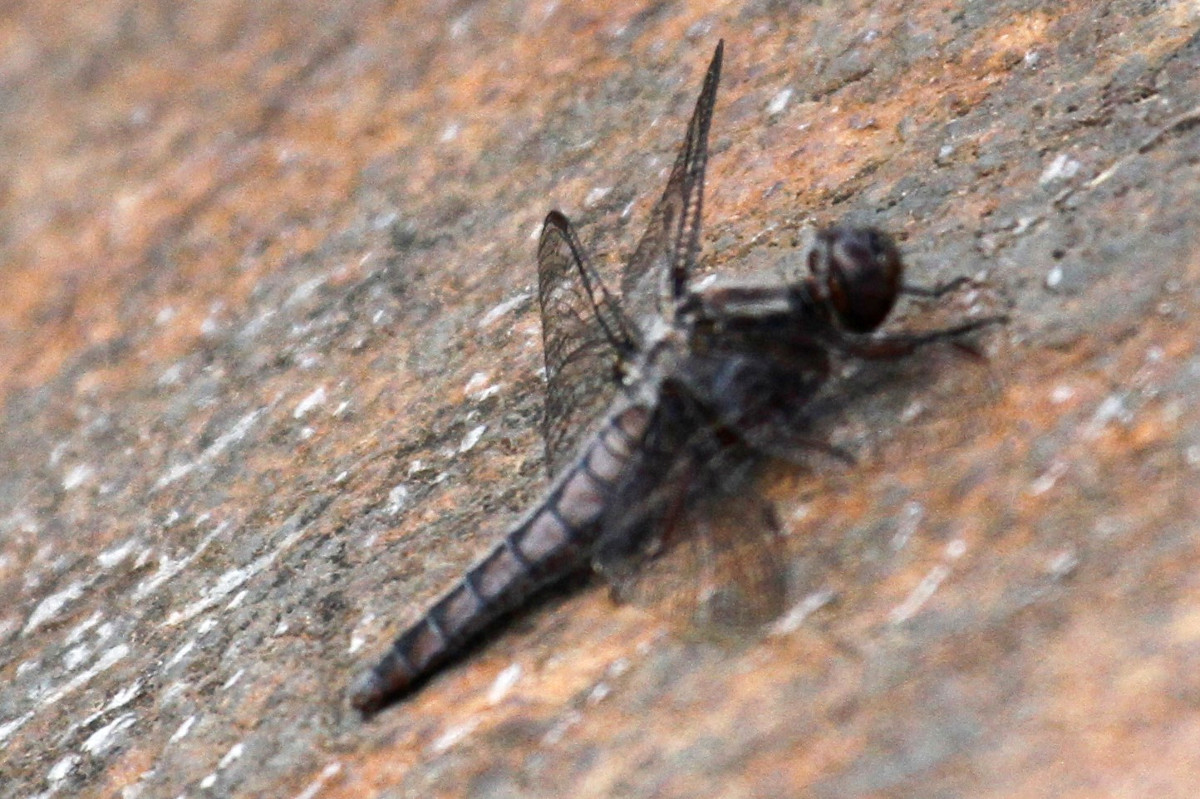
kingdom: Animalia
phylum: Arthropoda
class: Insecta
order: Odonata
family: Libellulidae
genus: Ladona
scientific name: Ladona deplanata
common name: Blue corporal
